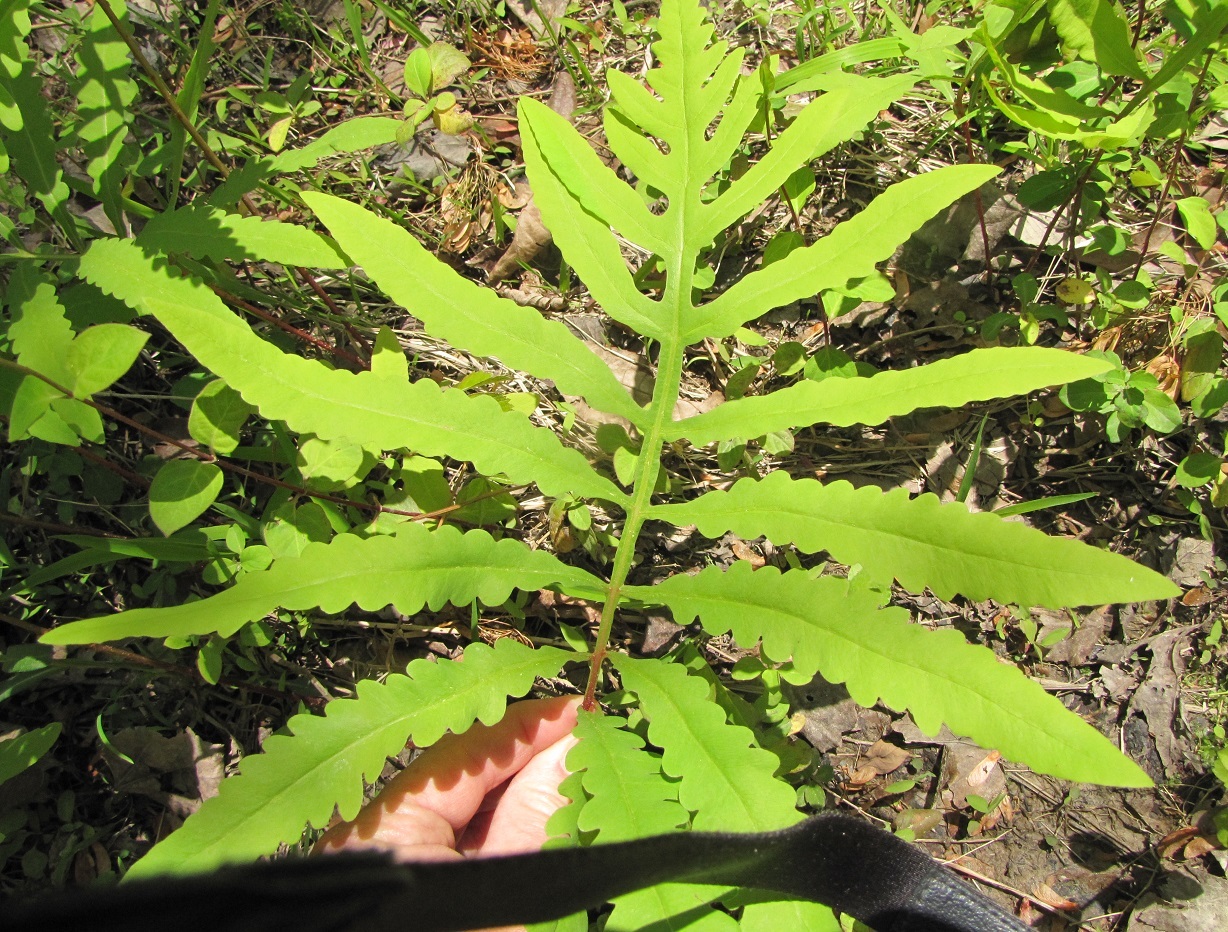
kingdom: Plantae
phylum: Tracheophyta
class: Polypodiopsida
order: Polypodiales
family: Onocleaceae
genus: Onoclea
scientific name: Onoclea sensibilis
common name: Sensitive fern
